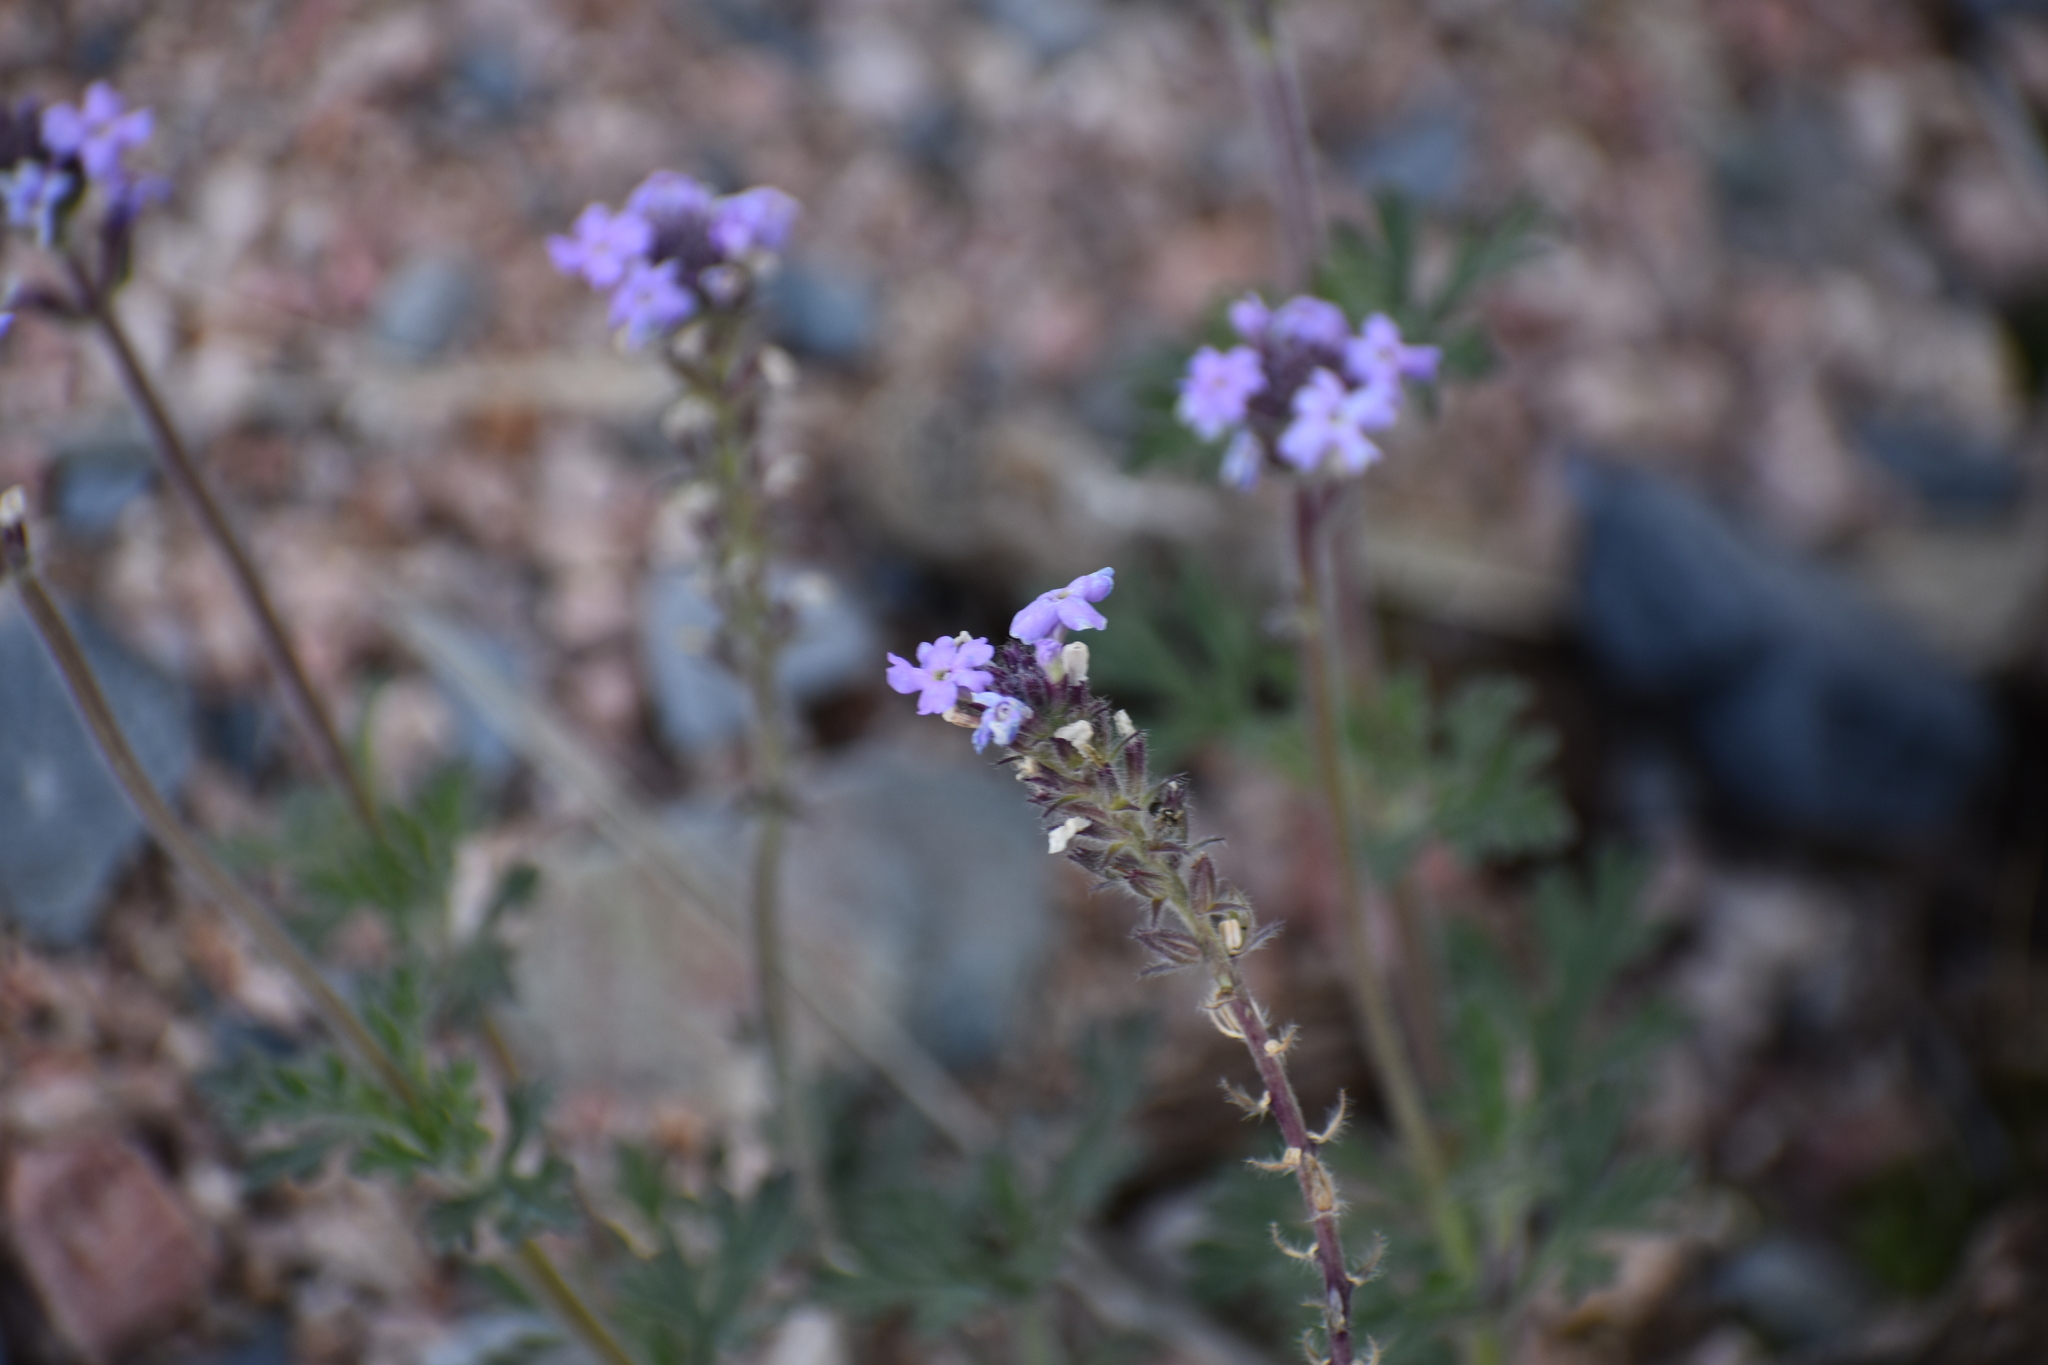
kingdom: Plantae
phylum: Tracheophyta
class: Magnoliopsida
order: Lamiales
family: Verbenaceae
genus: Verbena
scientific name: Verbena gooddingii
